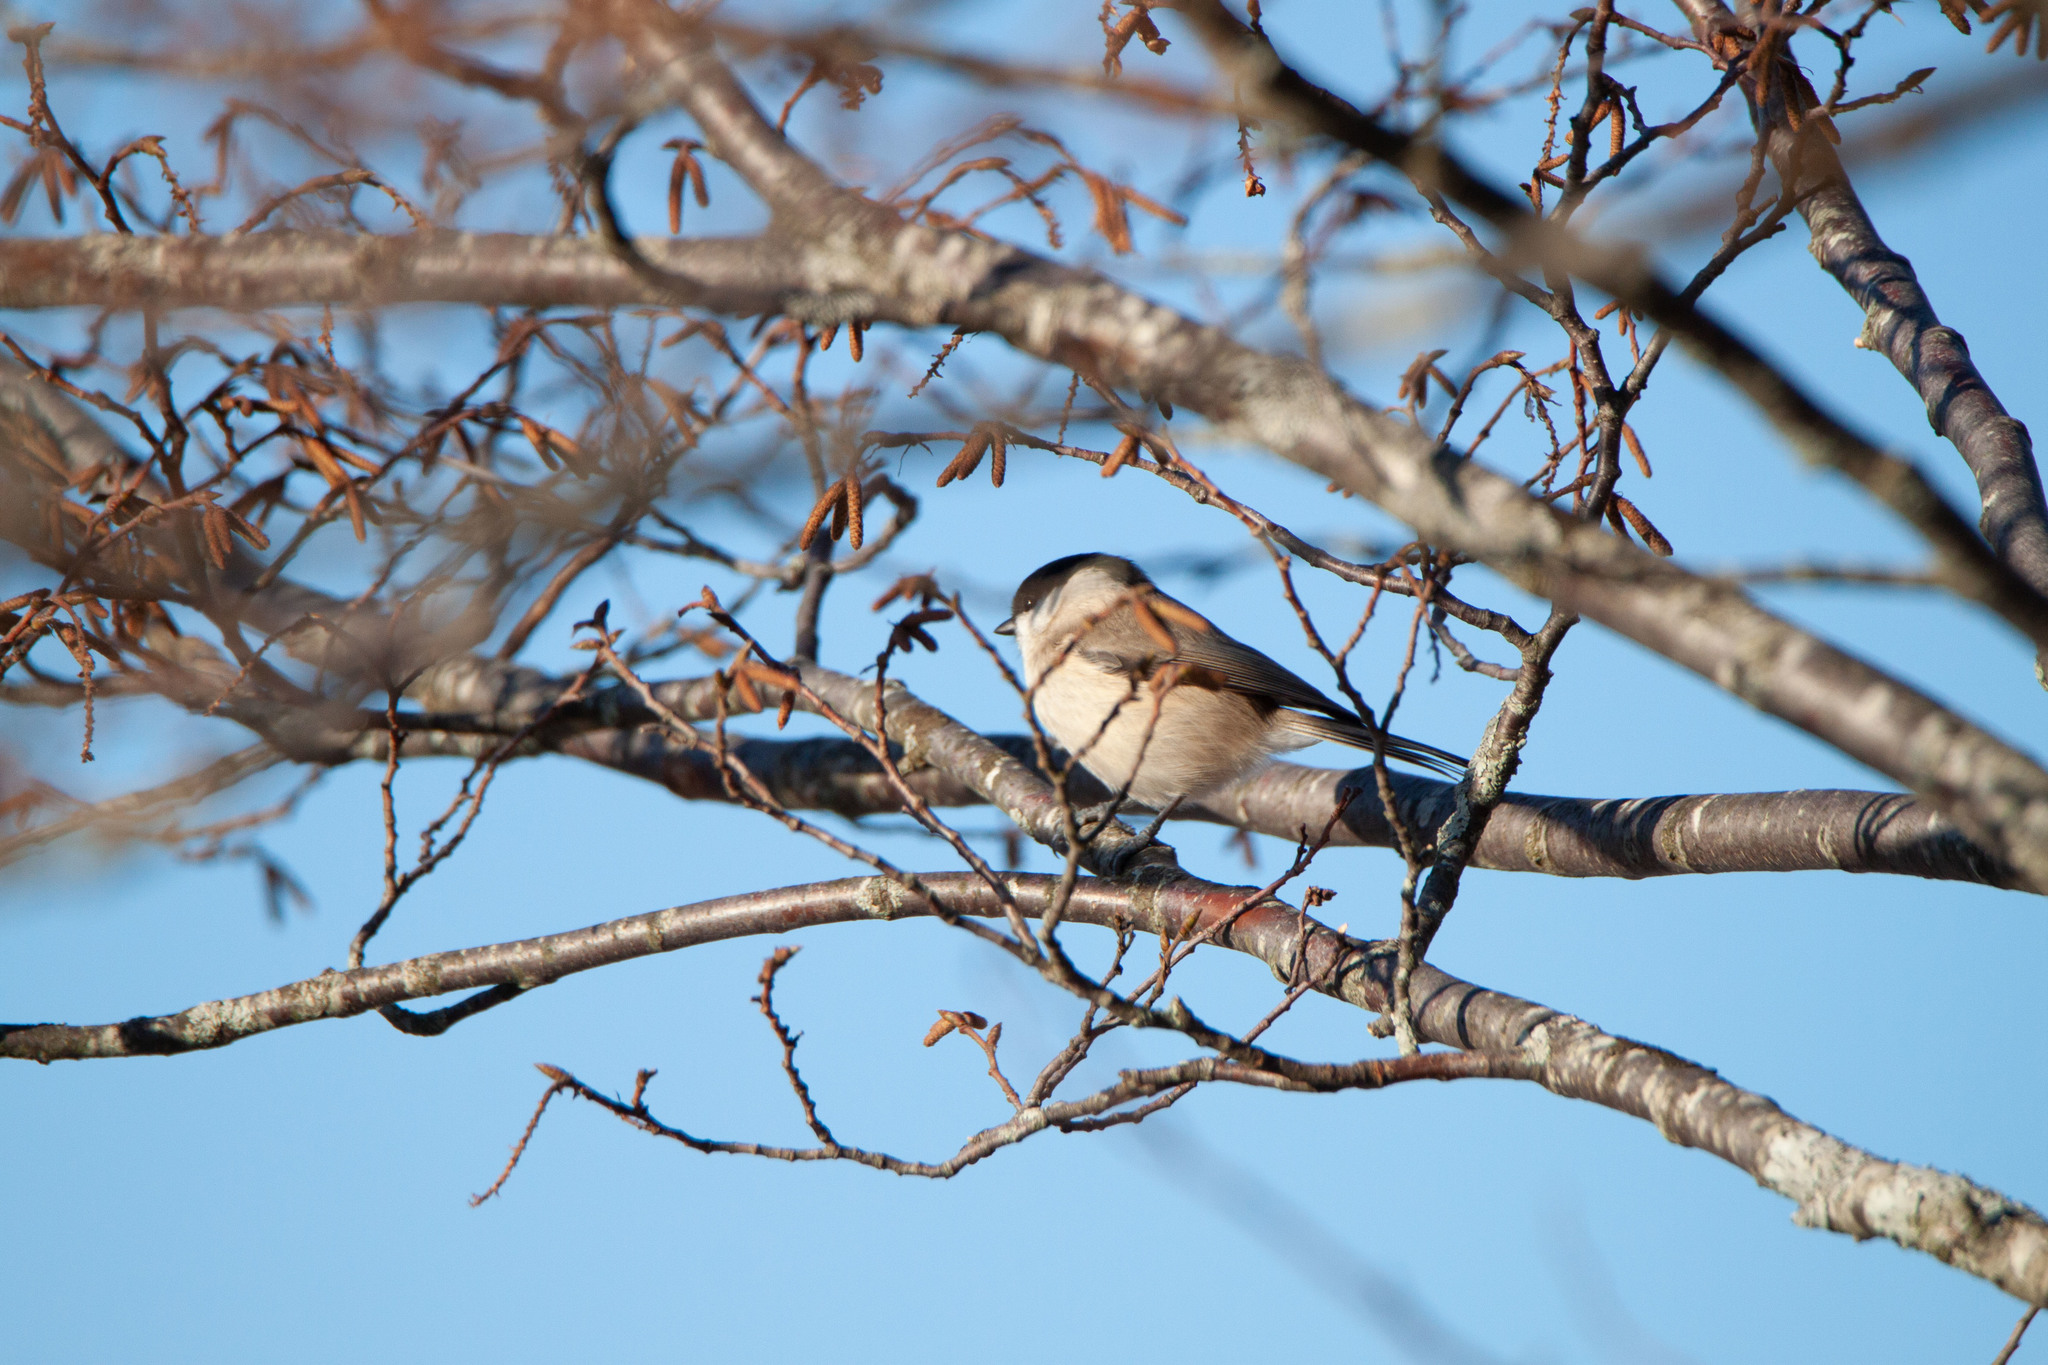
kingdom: Animalia
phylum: Chordata
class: Aves
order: Passeriformes
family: Paridae
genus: Poecile
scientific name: Poecile palustris
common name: Marsh tit
